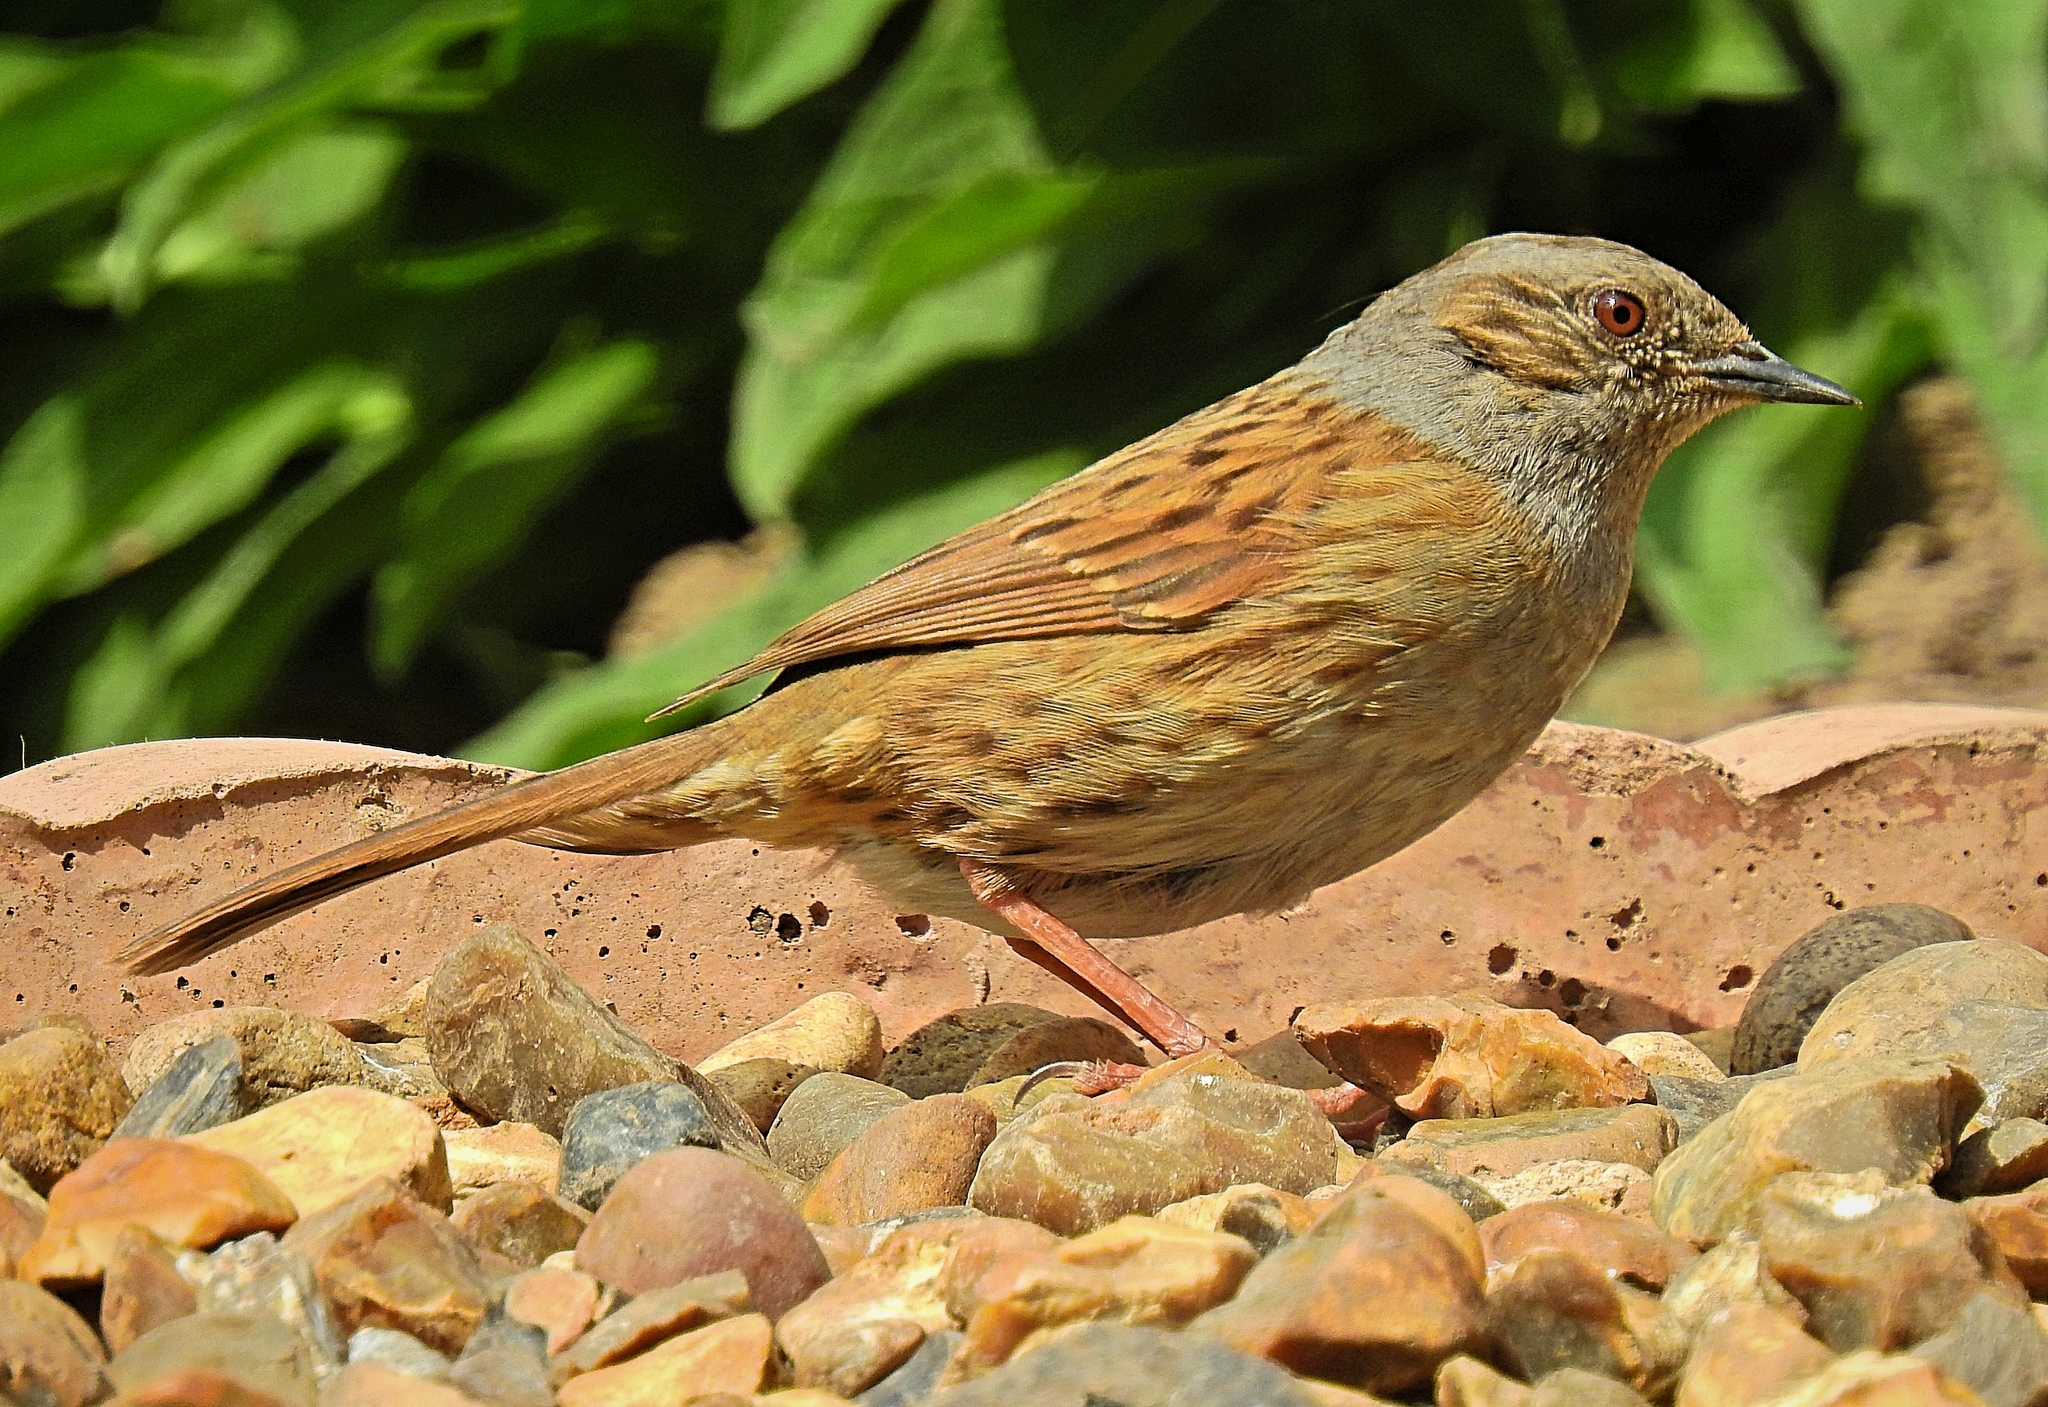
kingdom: Animalia
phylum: Chordata
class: Aves
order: Passeriformes
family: Prunellidae
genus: Prunella
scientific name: Prunella modularis
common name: Dunnock
